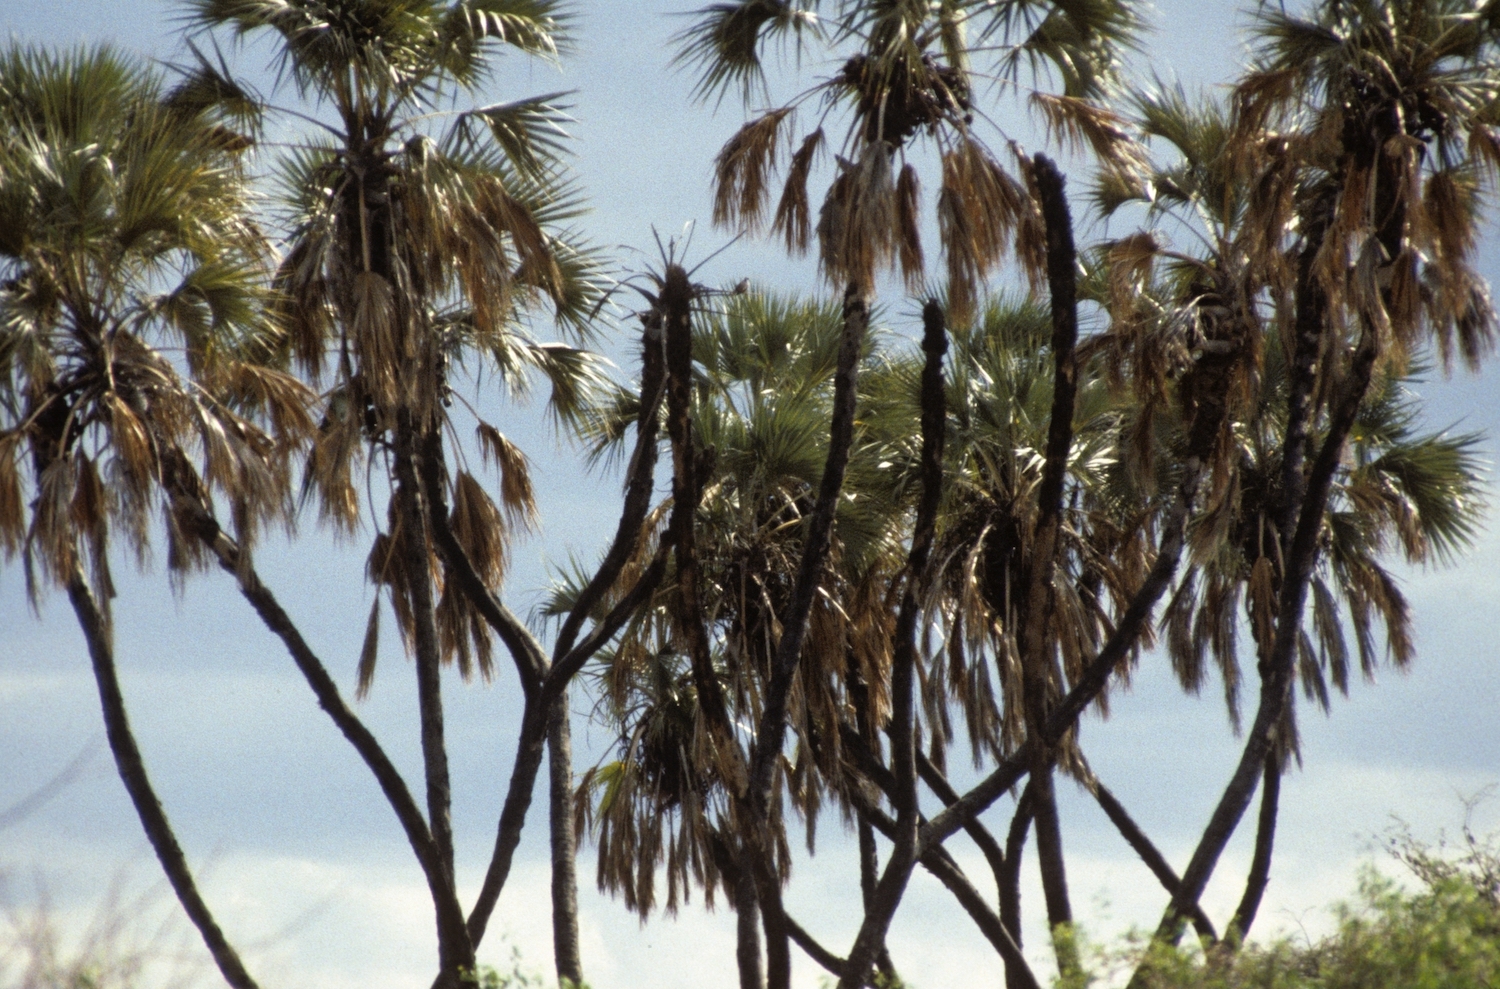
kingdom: Plantae
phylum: Tracheophyta
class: Liliopsida
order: Arecales
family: Arecaceae
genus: Hyphaene
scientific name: Hyphaene compressa
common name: Doum palm
